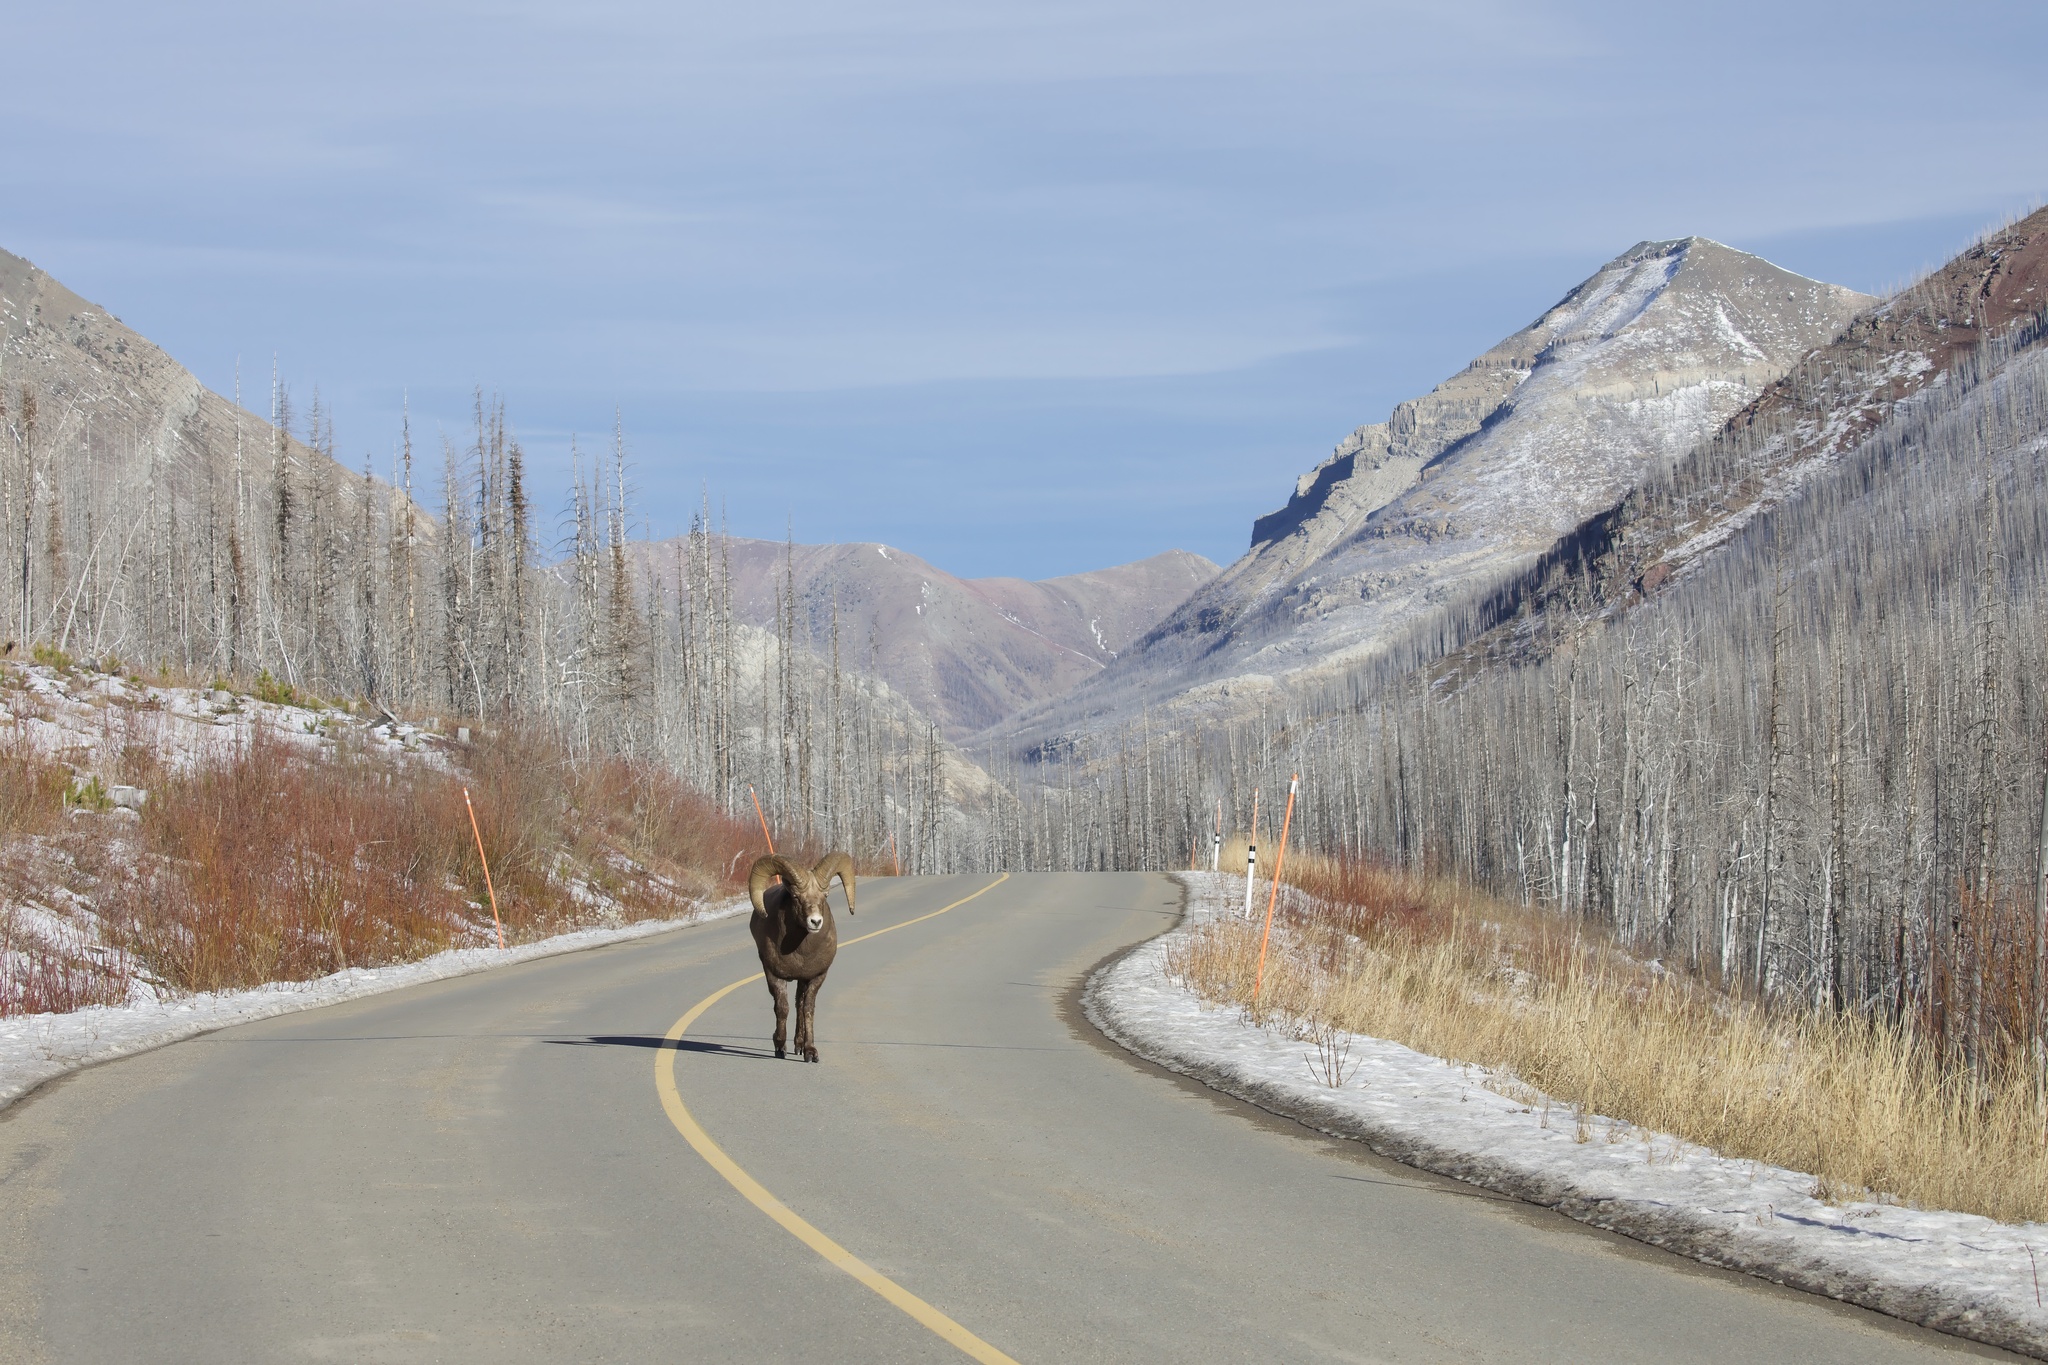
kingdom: Animalia
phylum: Chordata
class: Mammalia
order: Artiodactyla
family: Bovidae
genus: Ovis
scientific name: Ovis canadensis
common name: Bighorn sheep
